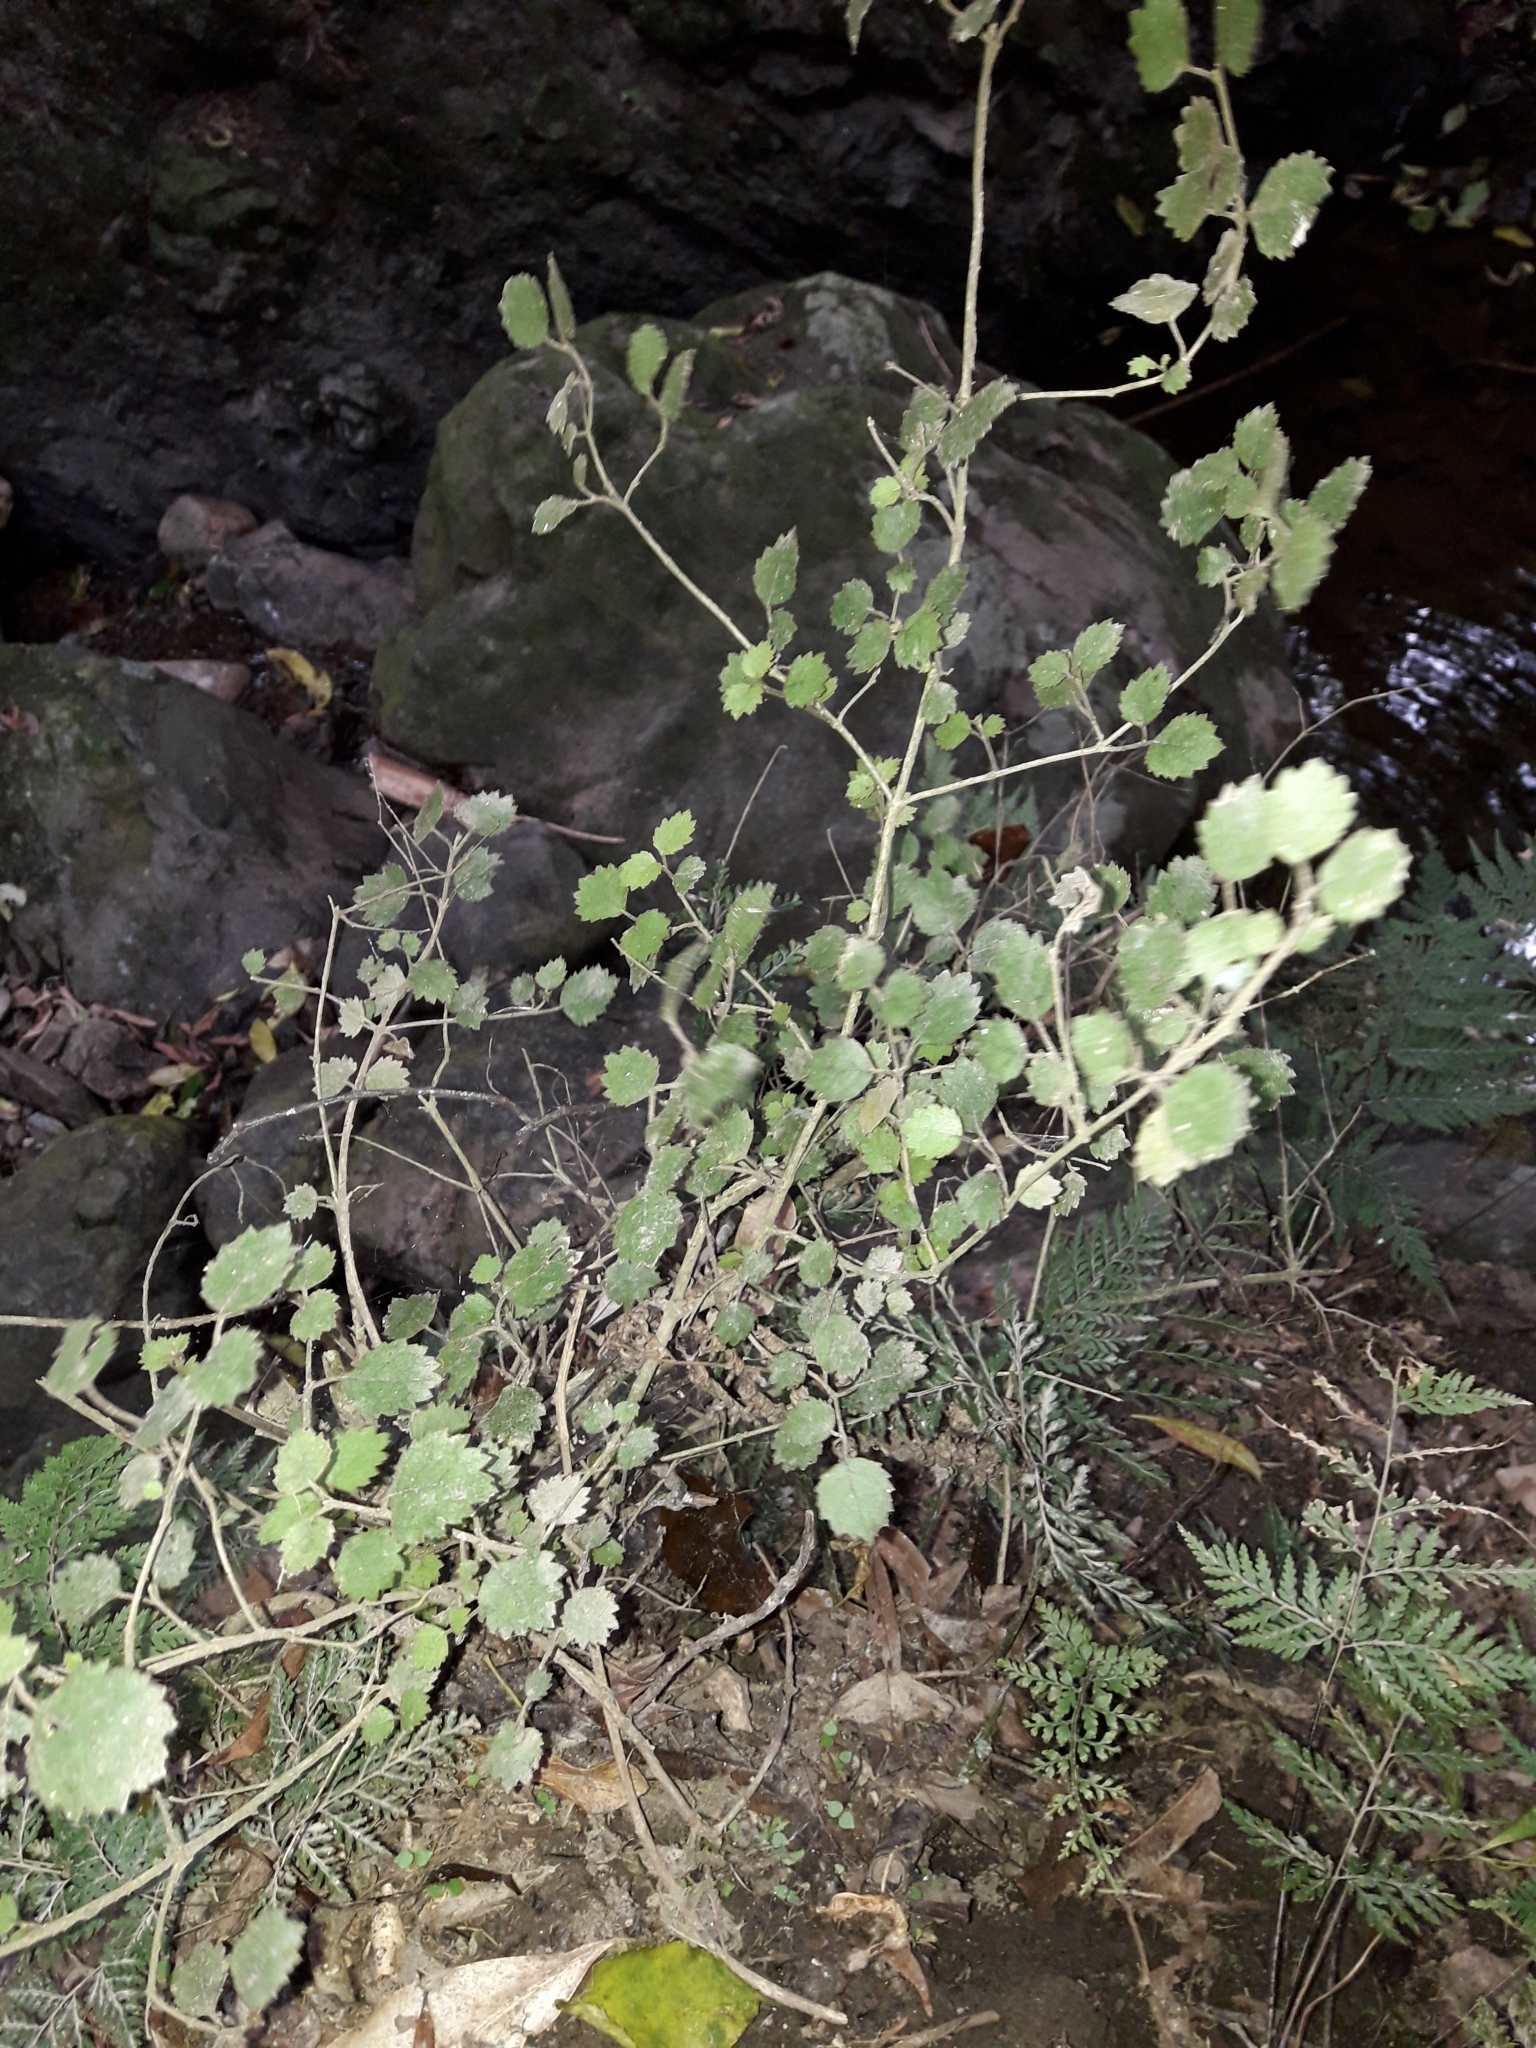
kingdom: Plantae
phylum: Tracheophyta
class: Magnoliopsida
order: Lamiales
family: Gesneriaceae
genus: Rhabdothamnus
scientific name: Rhabdothamnus solandri
